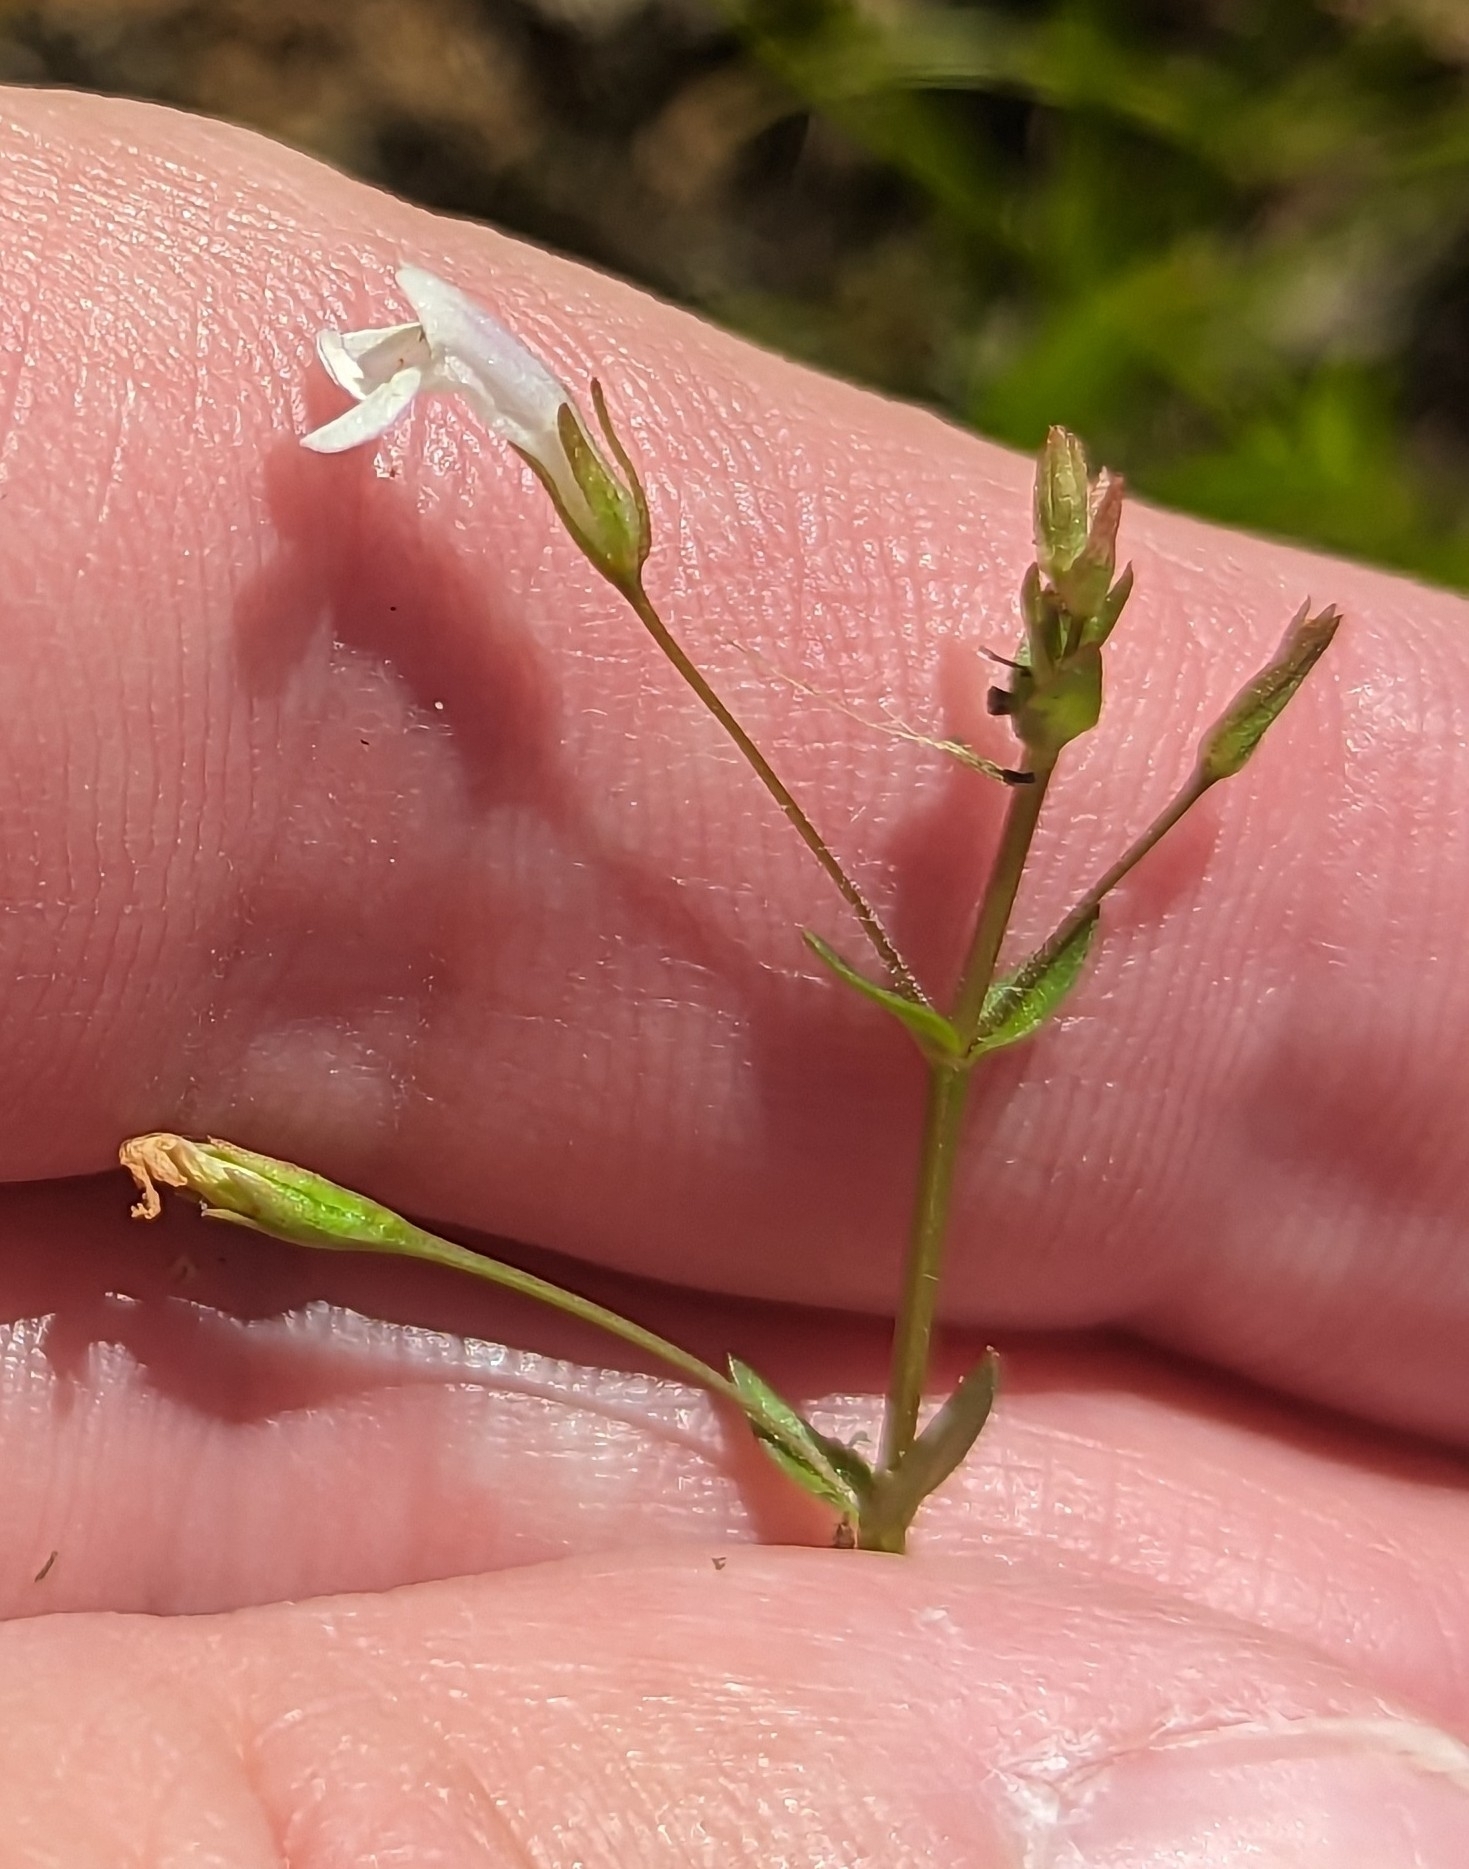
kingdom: Plantae
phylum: Tracheophyta
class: Magnoliopsida
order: Lamiales
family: Linderniaceae
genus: Lindernia
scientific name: Lindernia dubia
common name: Annual false pimpernel
